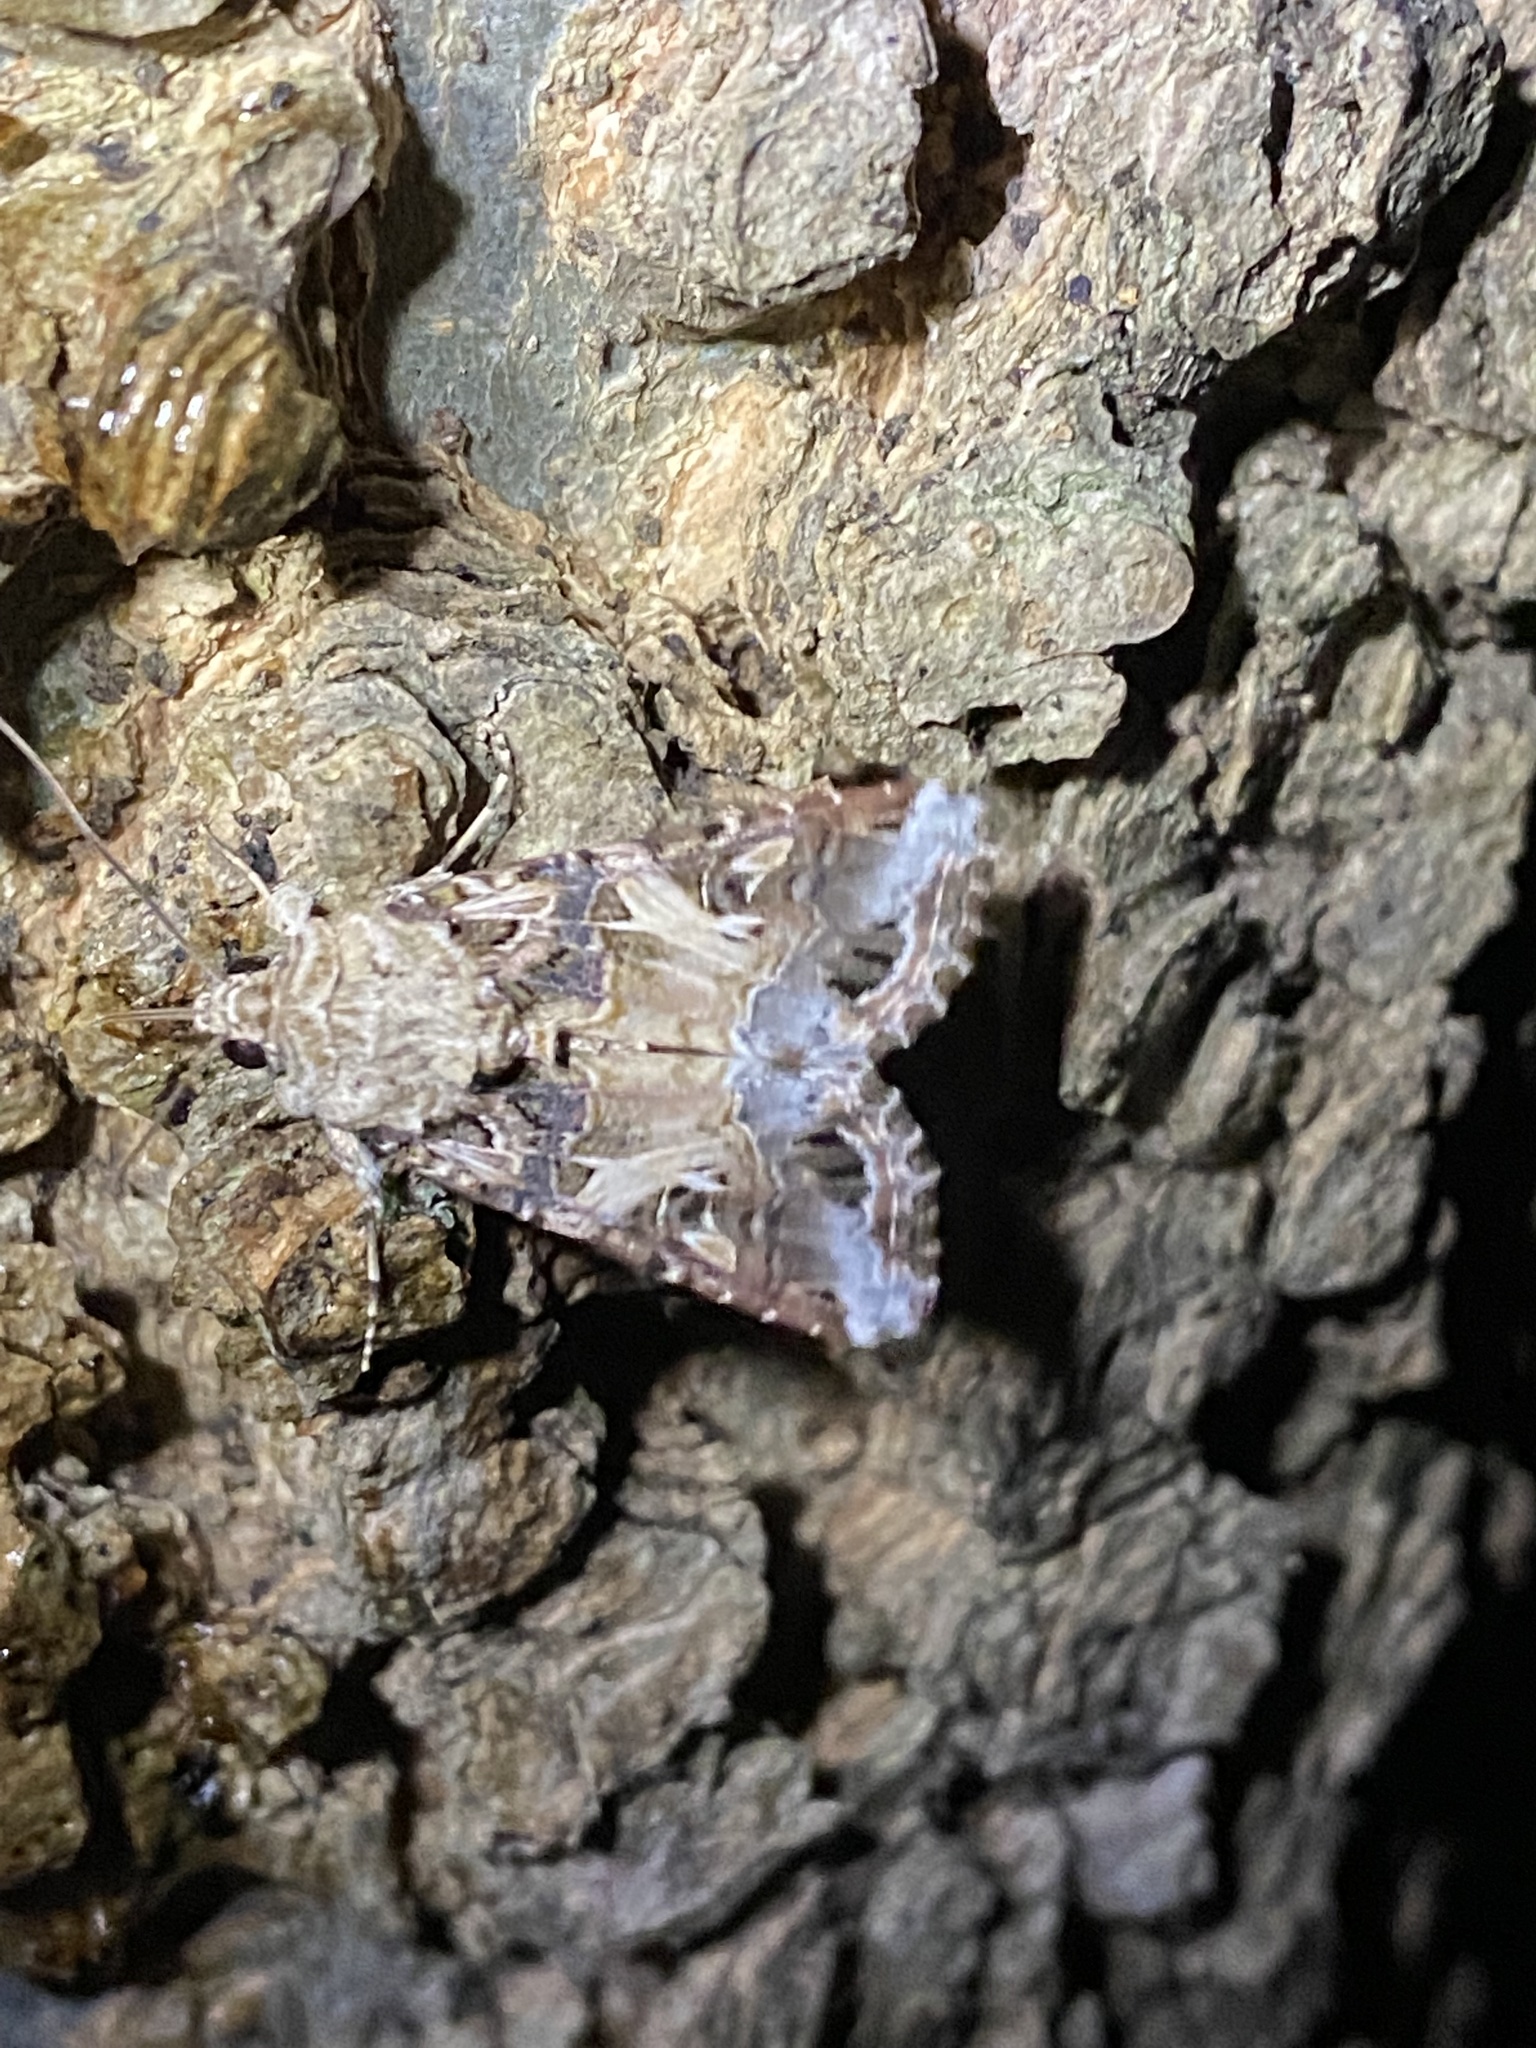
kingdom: Animalia
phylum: Arthropoda
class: Insecta
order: Lepidoptera
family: Noctuidae
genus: Spodoptera
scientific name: Spodoptera ornithogalli
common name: Yellow-striped armyworm
